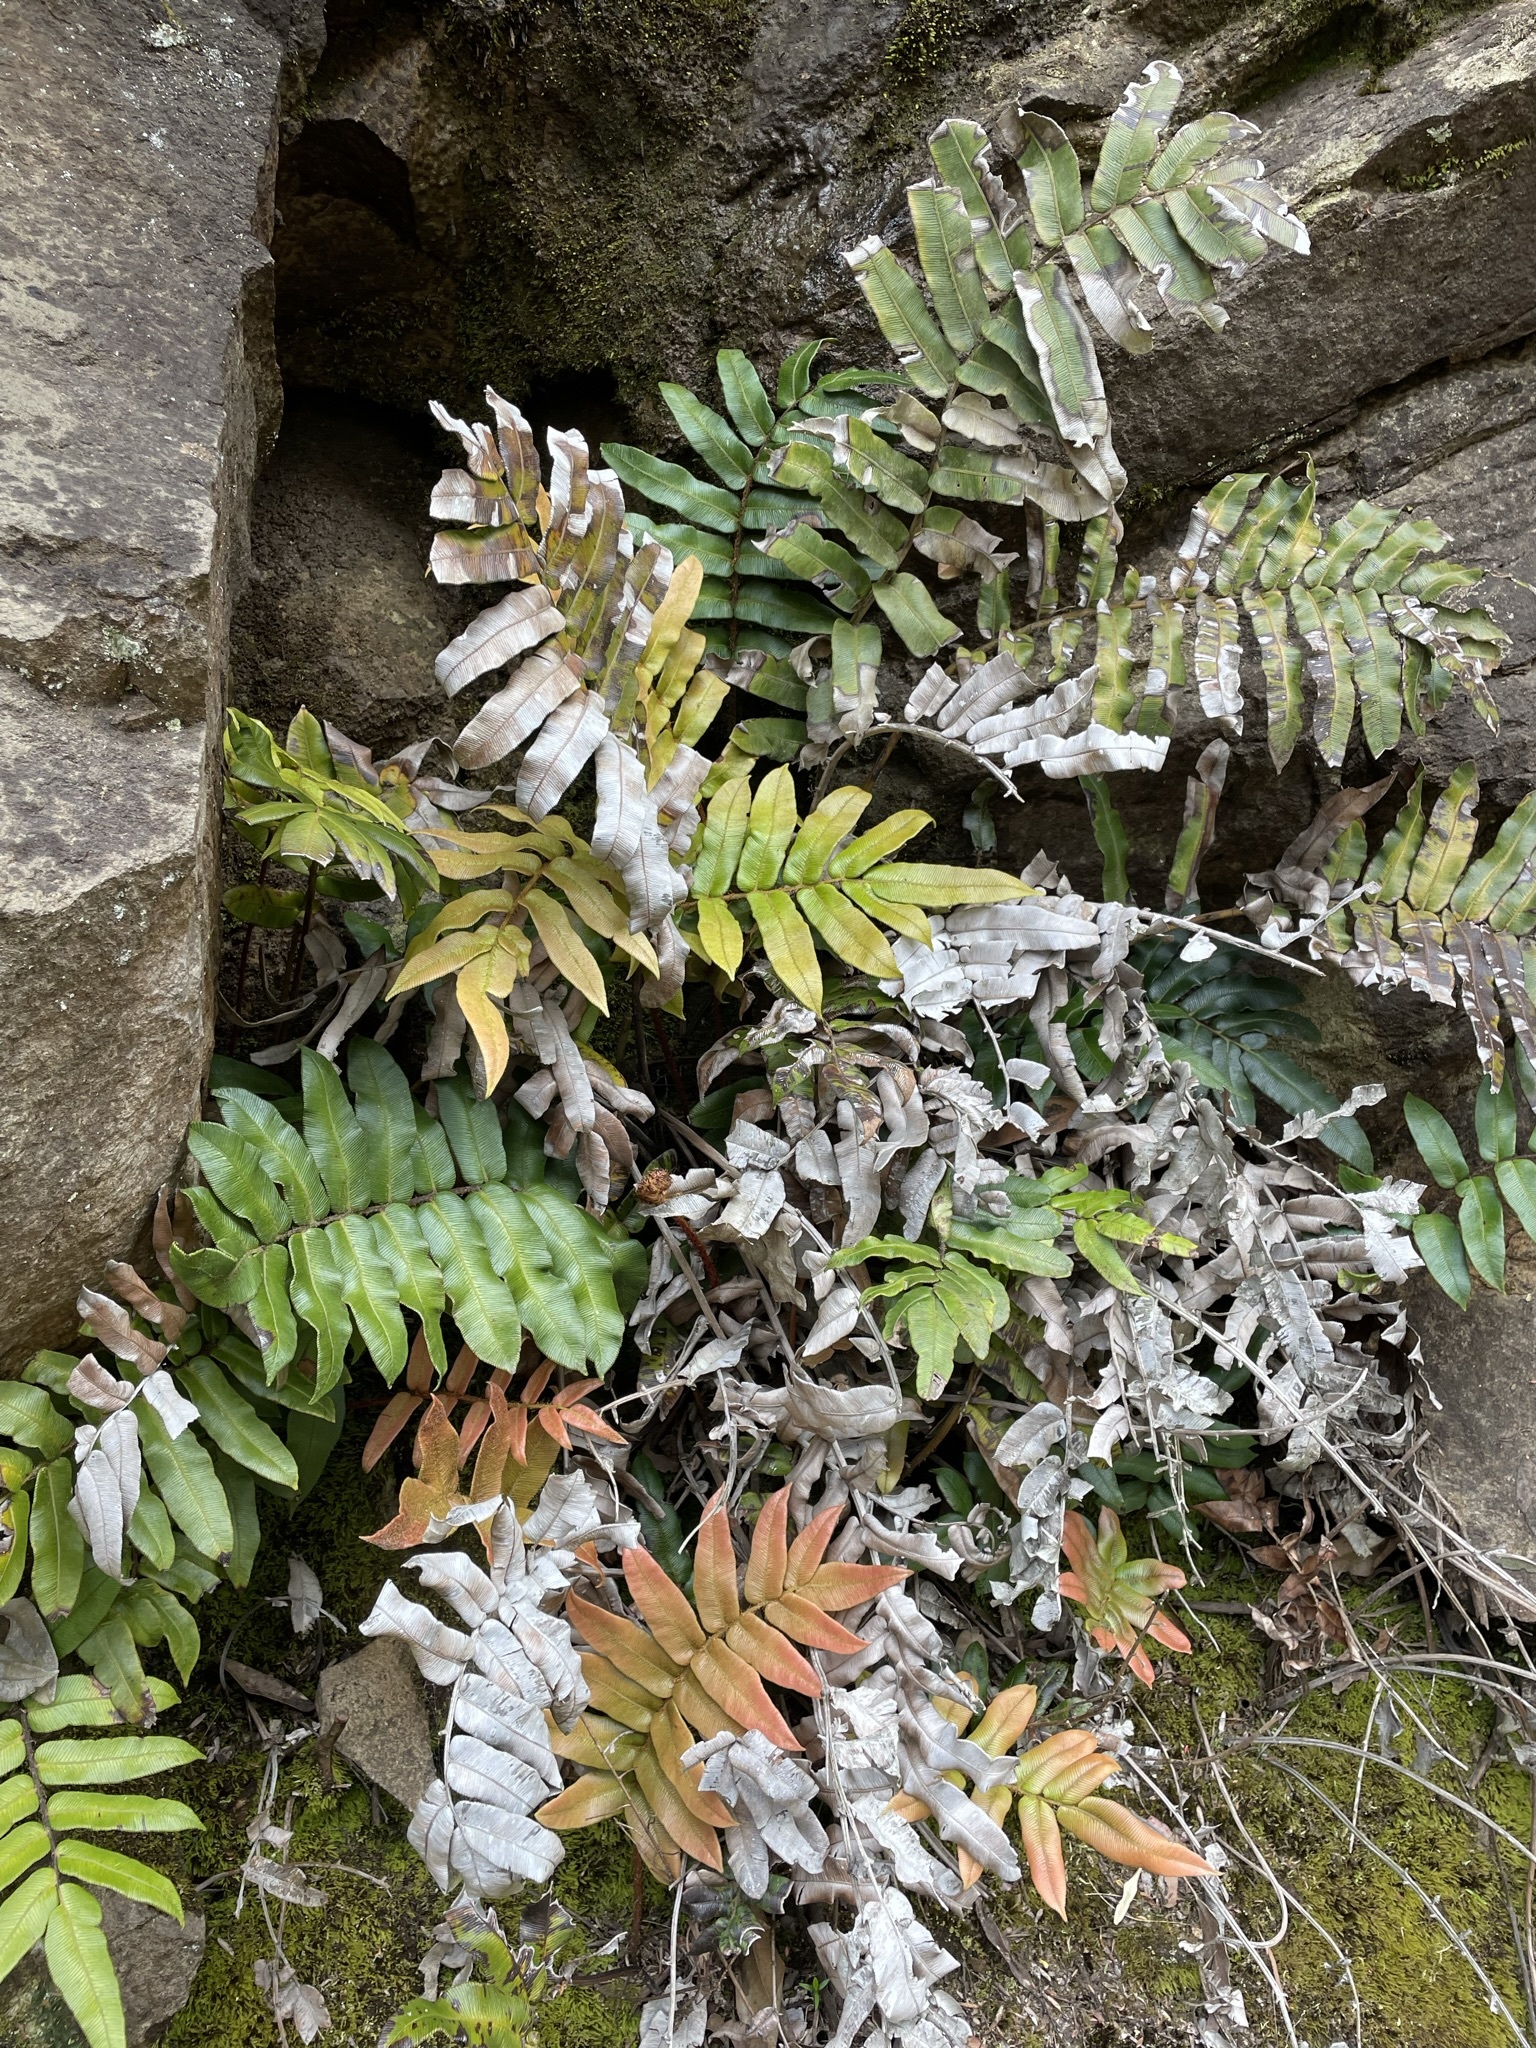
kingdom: Plantae
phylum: Tracheophyta
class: Polypodiopsida
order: Polypodiales
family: Blechnaceae
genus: Parablechnum
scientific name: Parablechnum wattsii
